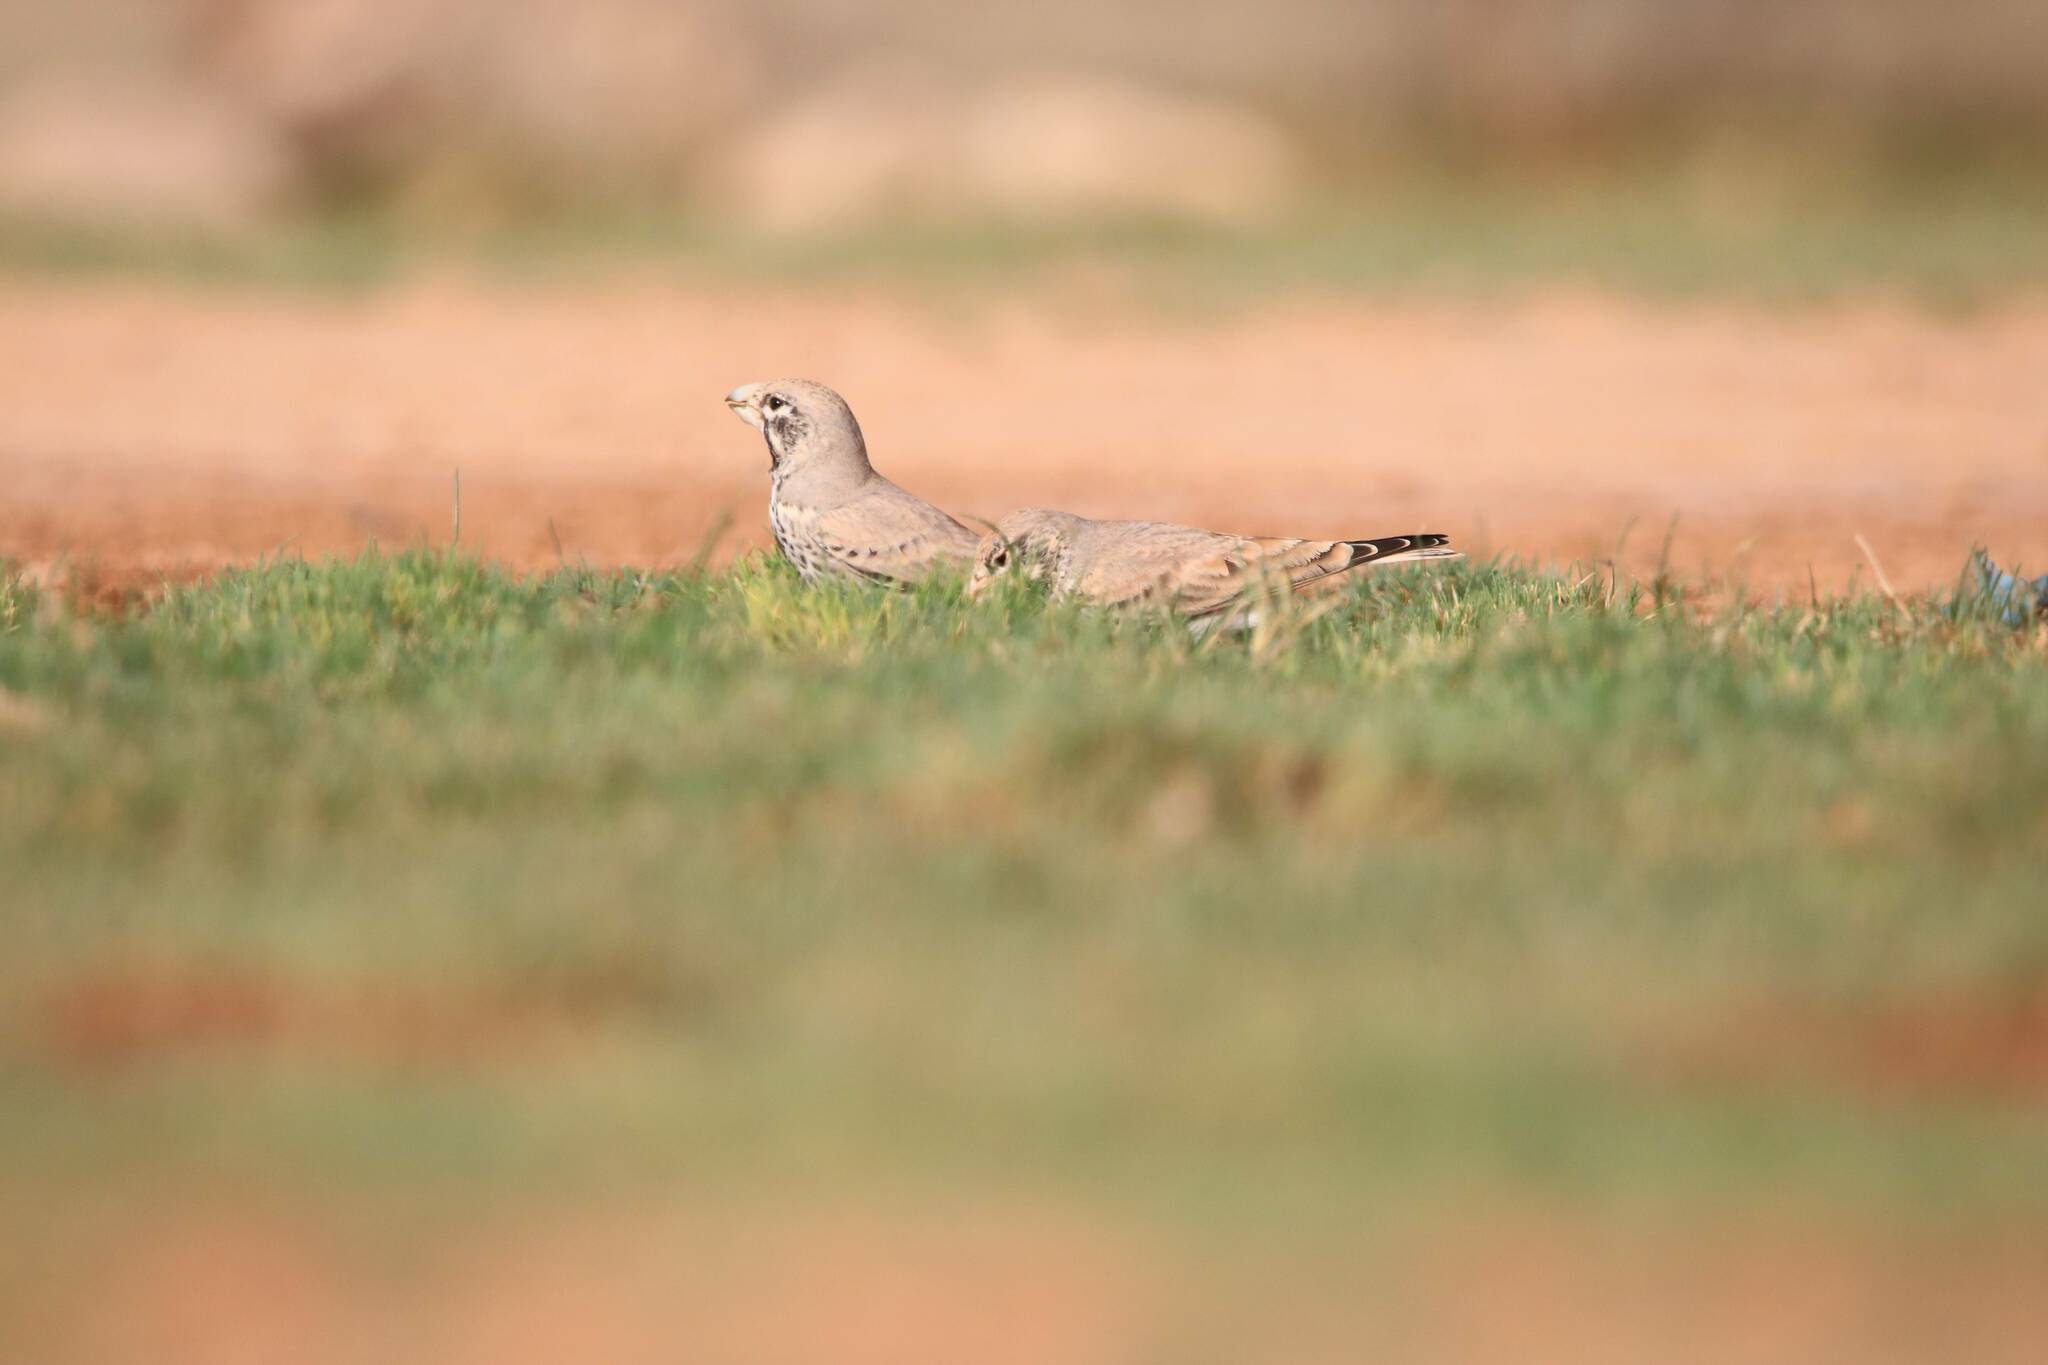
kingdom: Animalia
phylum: Chordata
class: Aves
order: Passeriformes
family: Alaudidae
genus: Ramphocoris
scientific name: Ramphocoris clotbey
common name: Thick-billed lark
